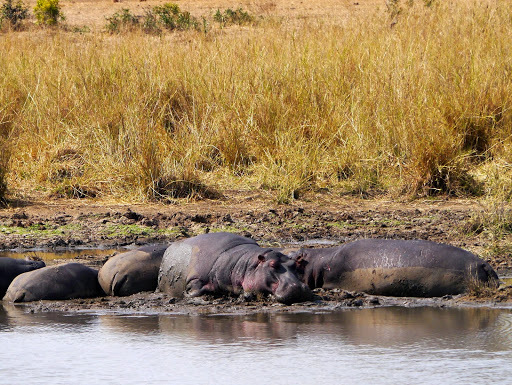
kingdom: Animalia
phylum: Chordata
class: Mammalia
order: Artiodactyla
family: Hippopotamidae
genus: Hippopotamus
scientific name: Hippopotamus amphibius
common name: Common hippopotamus
